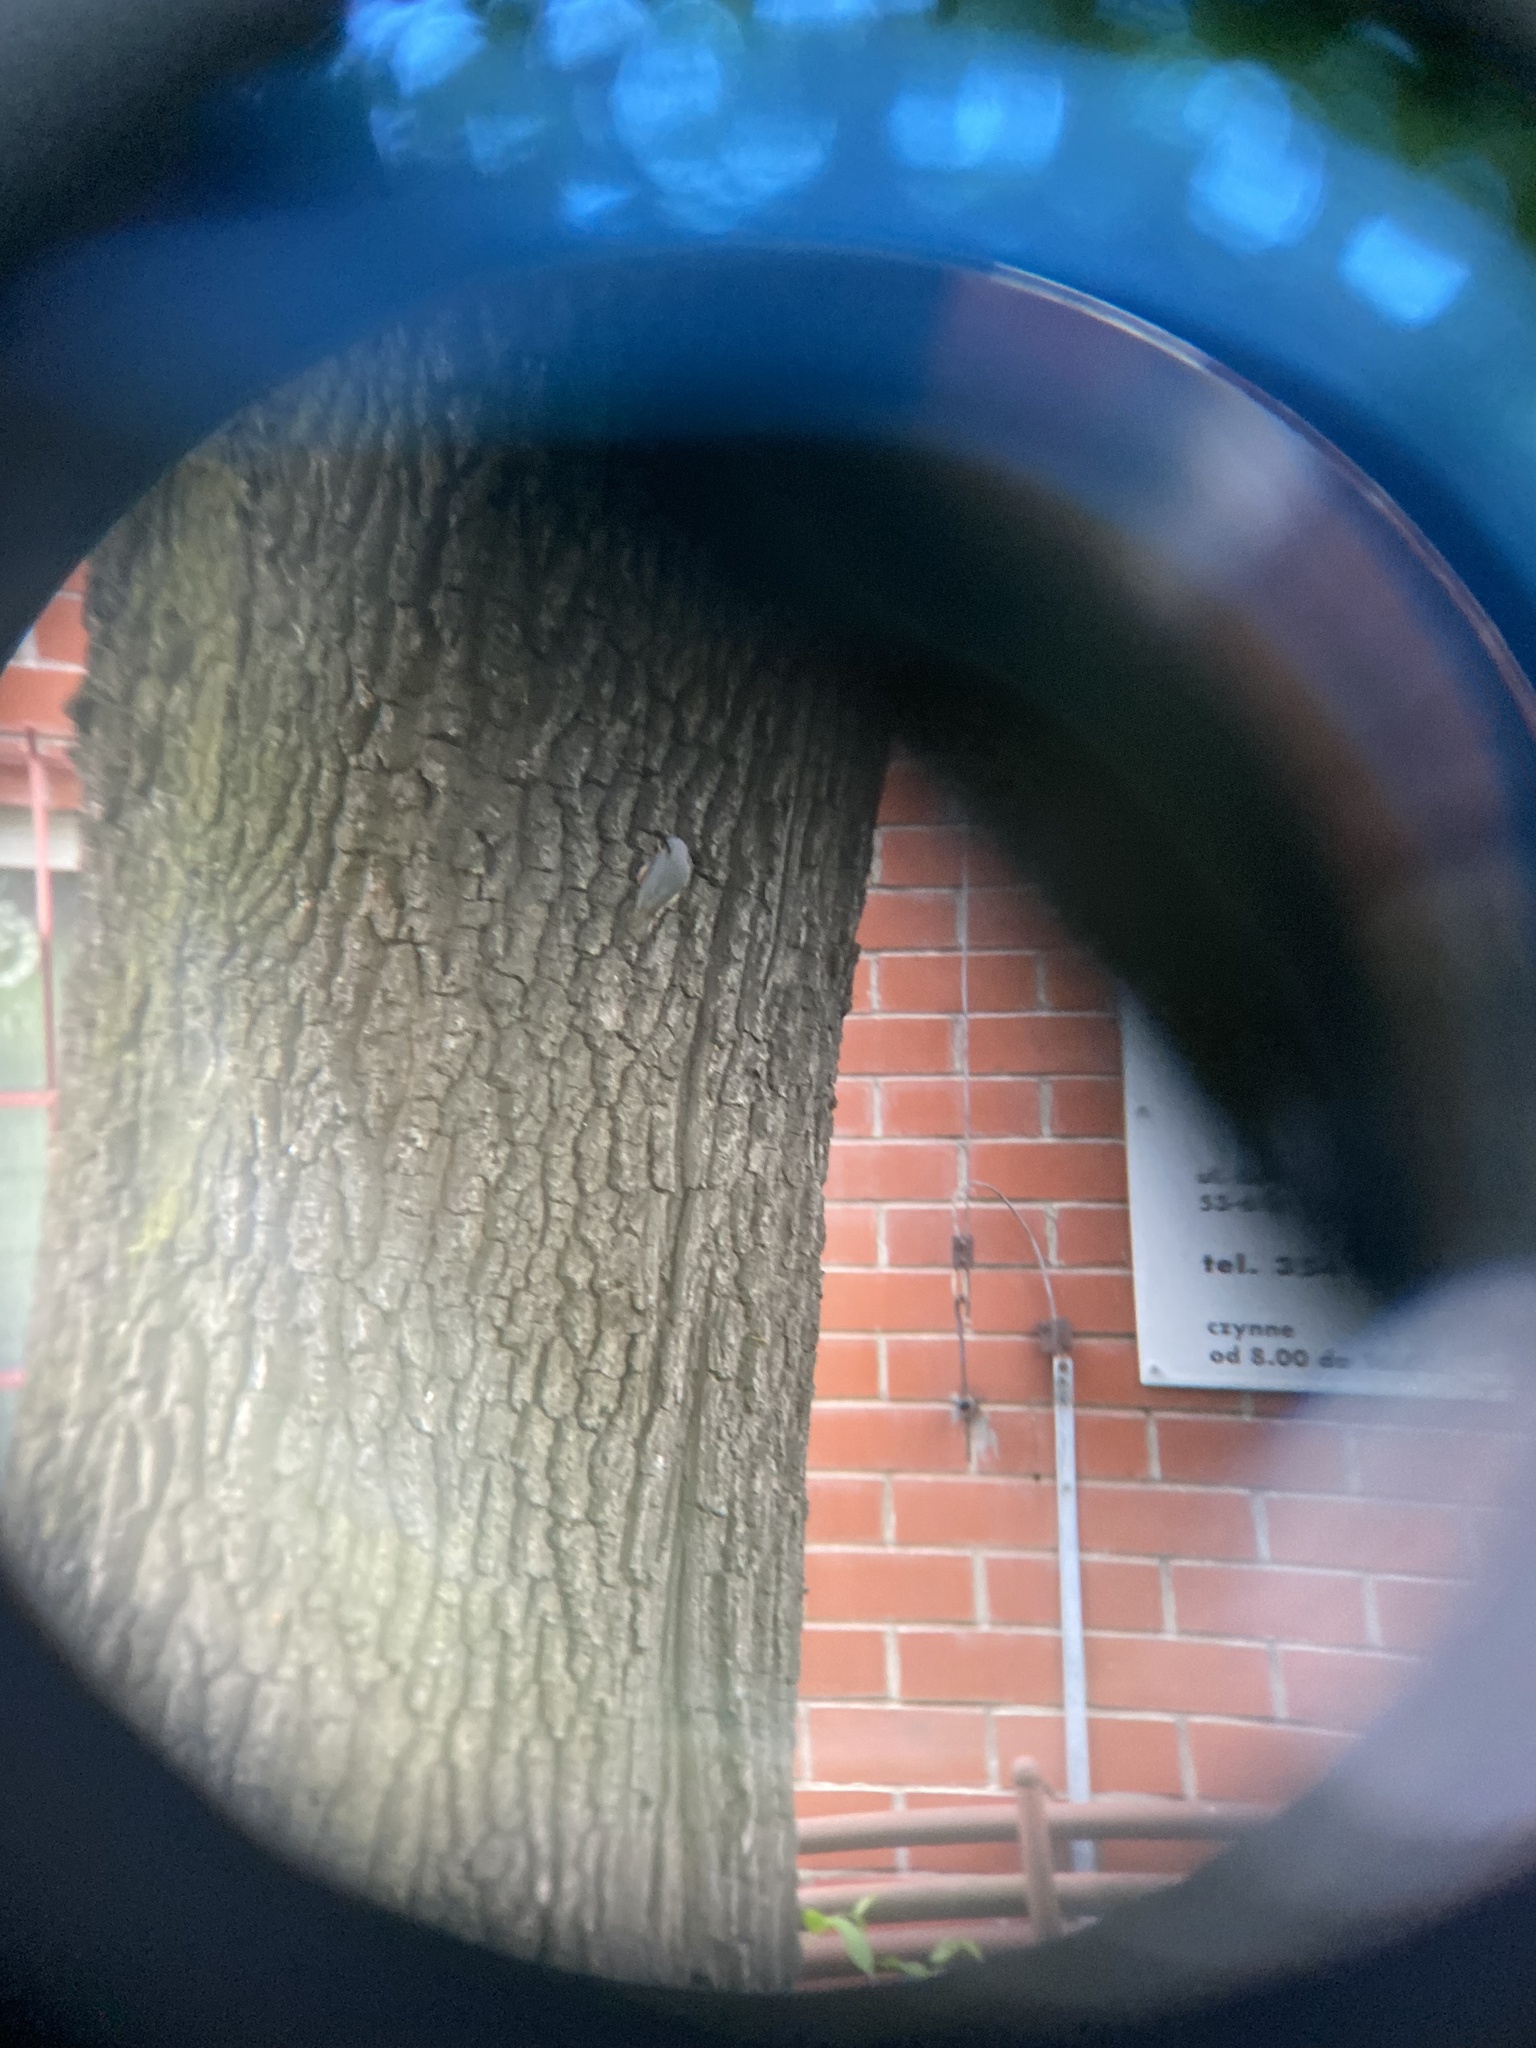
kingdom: Animalia
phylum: Chordata
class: Aves
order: Passeriformes
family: Sittidae
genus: Sitta
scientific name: Sitta europaea
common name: Eurasian nuthatch
